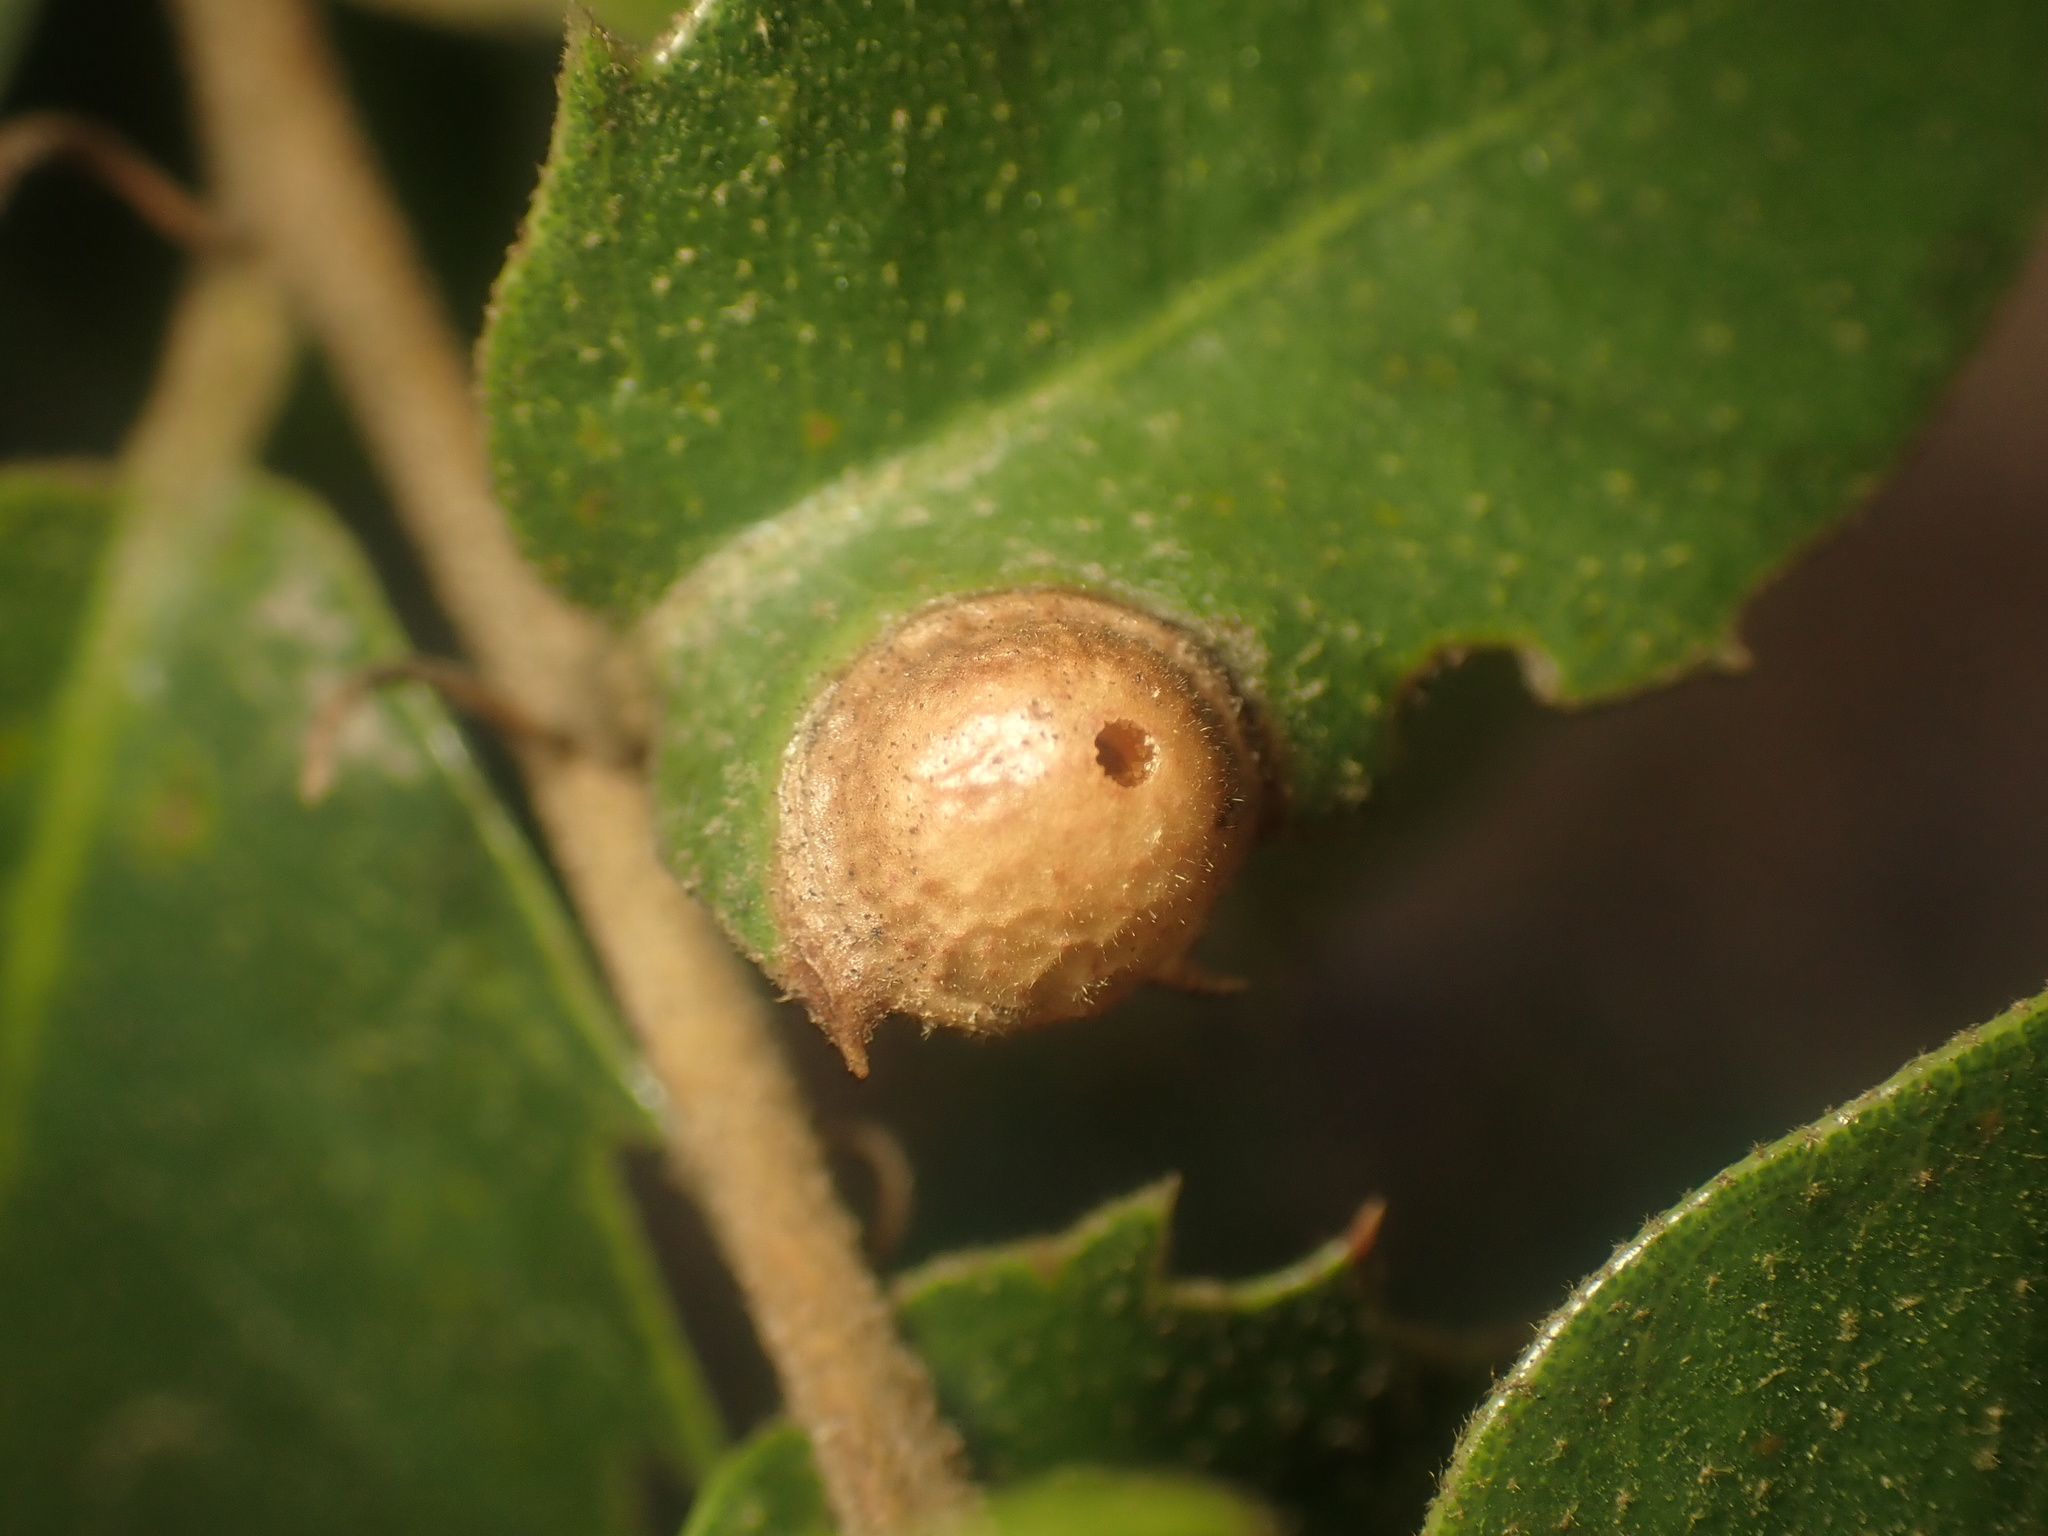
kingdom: Animalia
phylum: Arthropoda
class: Insecta
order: Hymenoptera
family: Cynipidae
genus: Heteroecus
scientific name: Heteroecus
